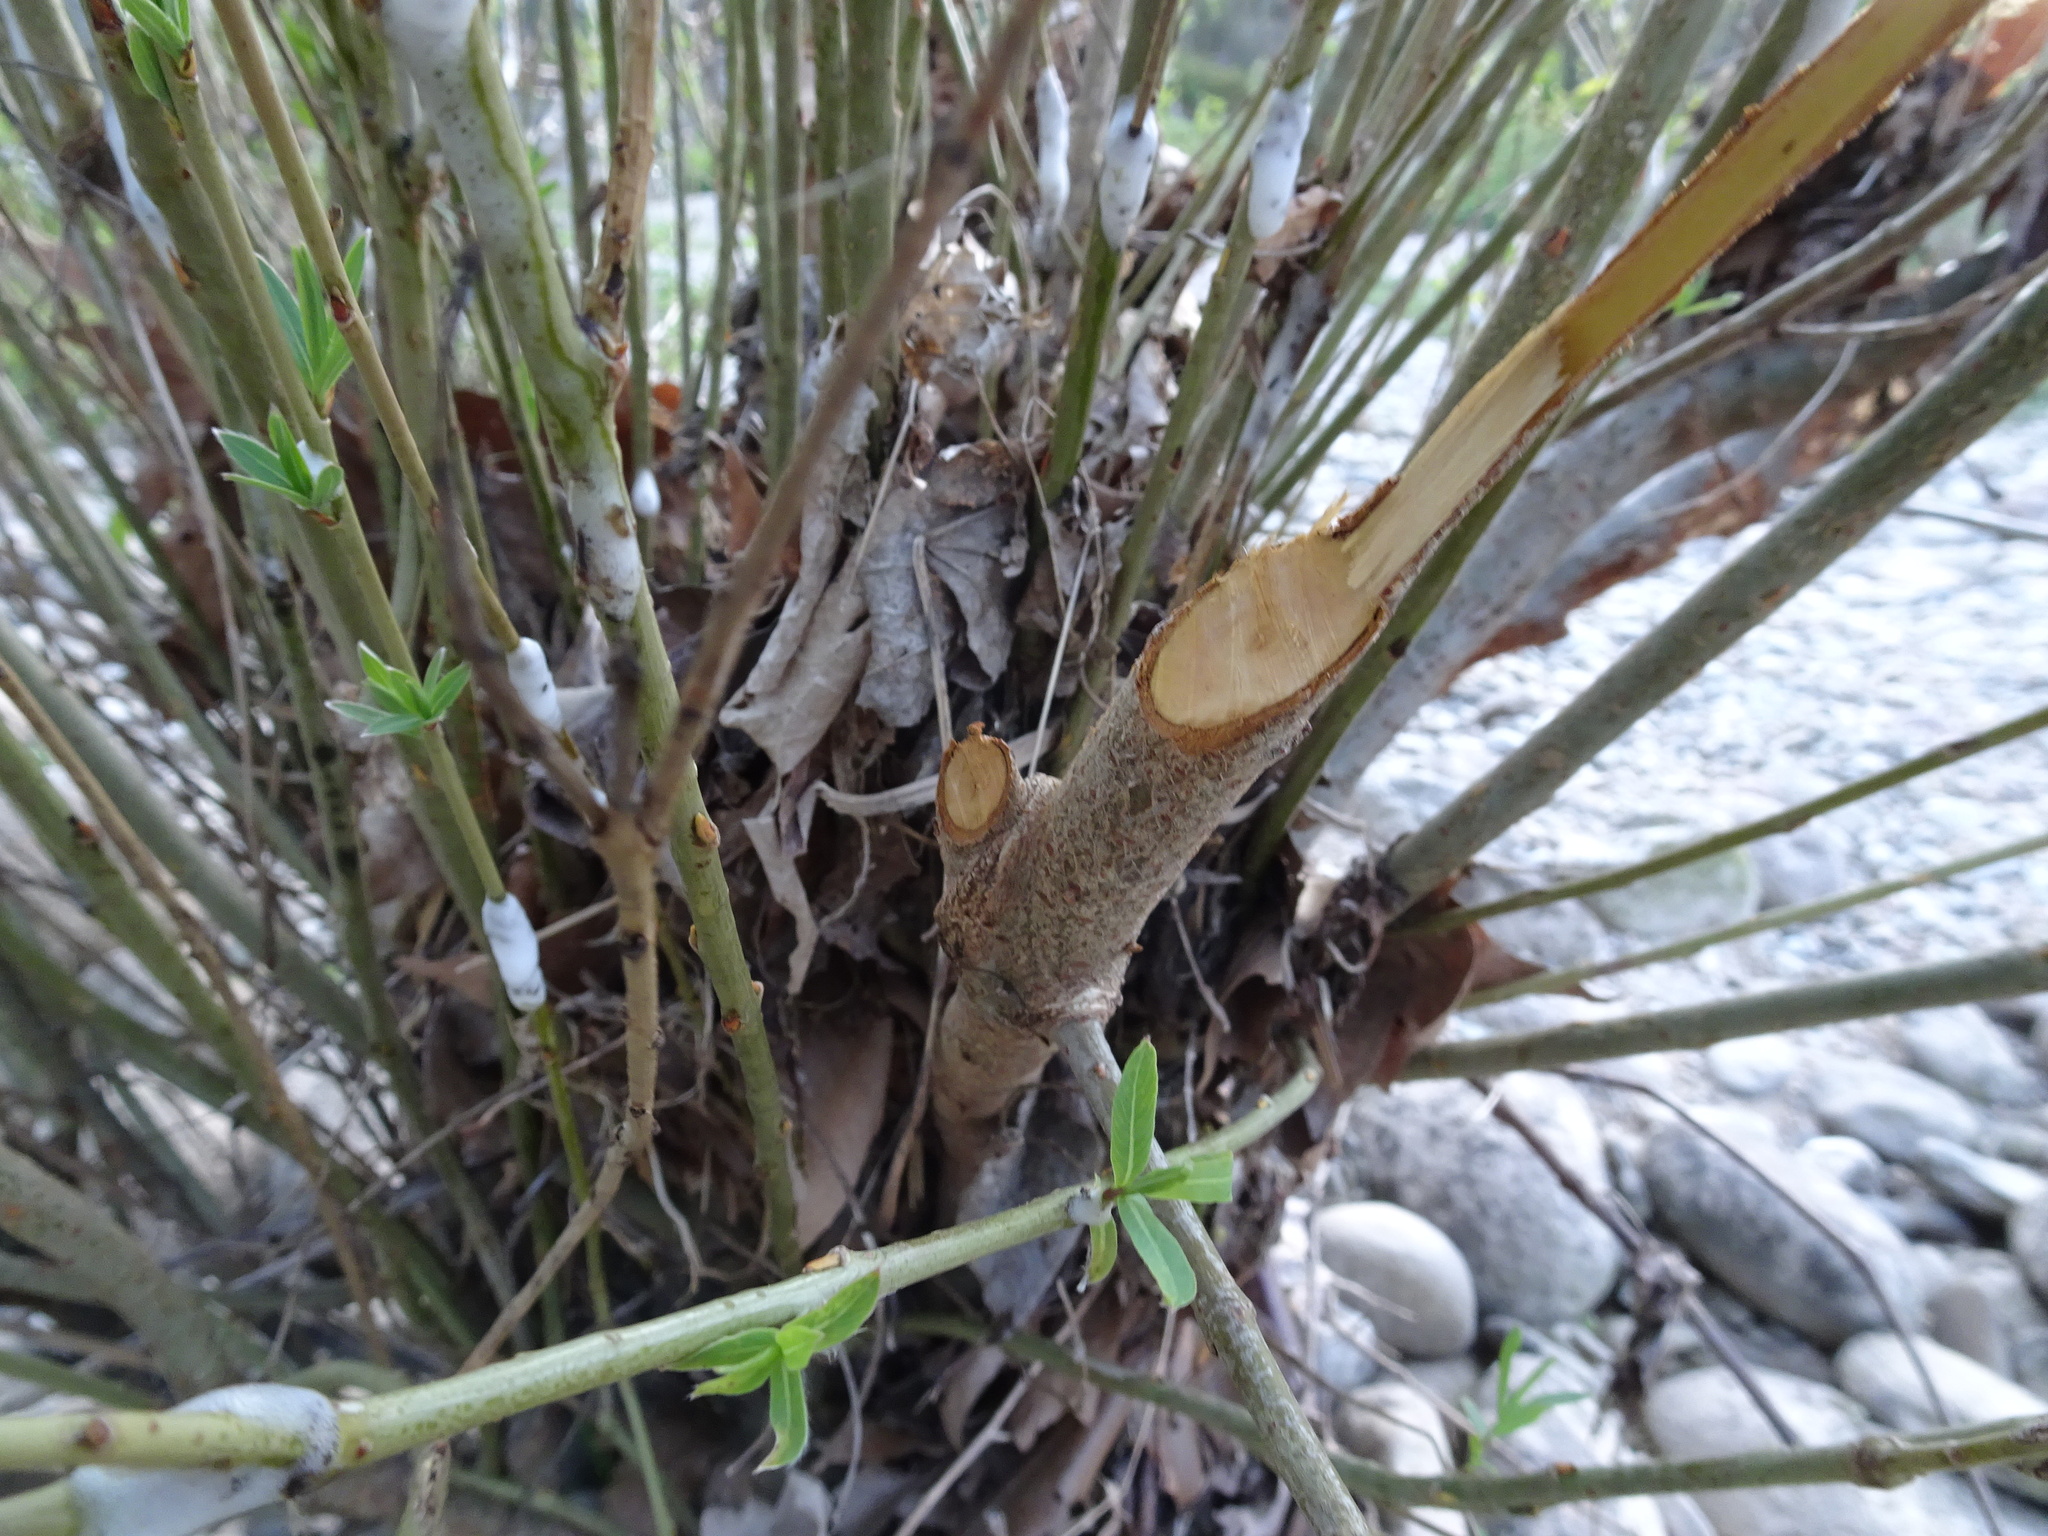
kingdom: Animalia
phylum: Chordata
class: Mammalia
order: Rodentia
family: Castoridae
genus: Castor
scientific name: Castor fiber
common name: Eurasian beaver
